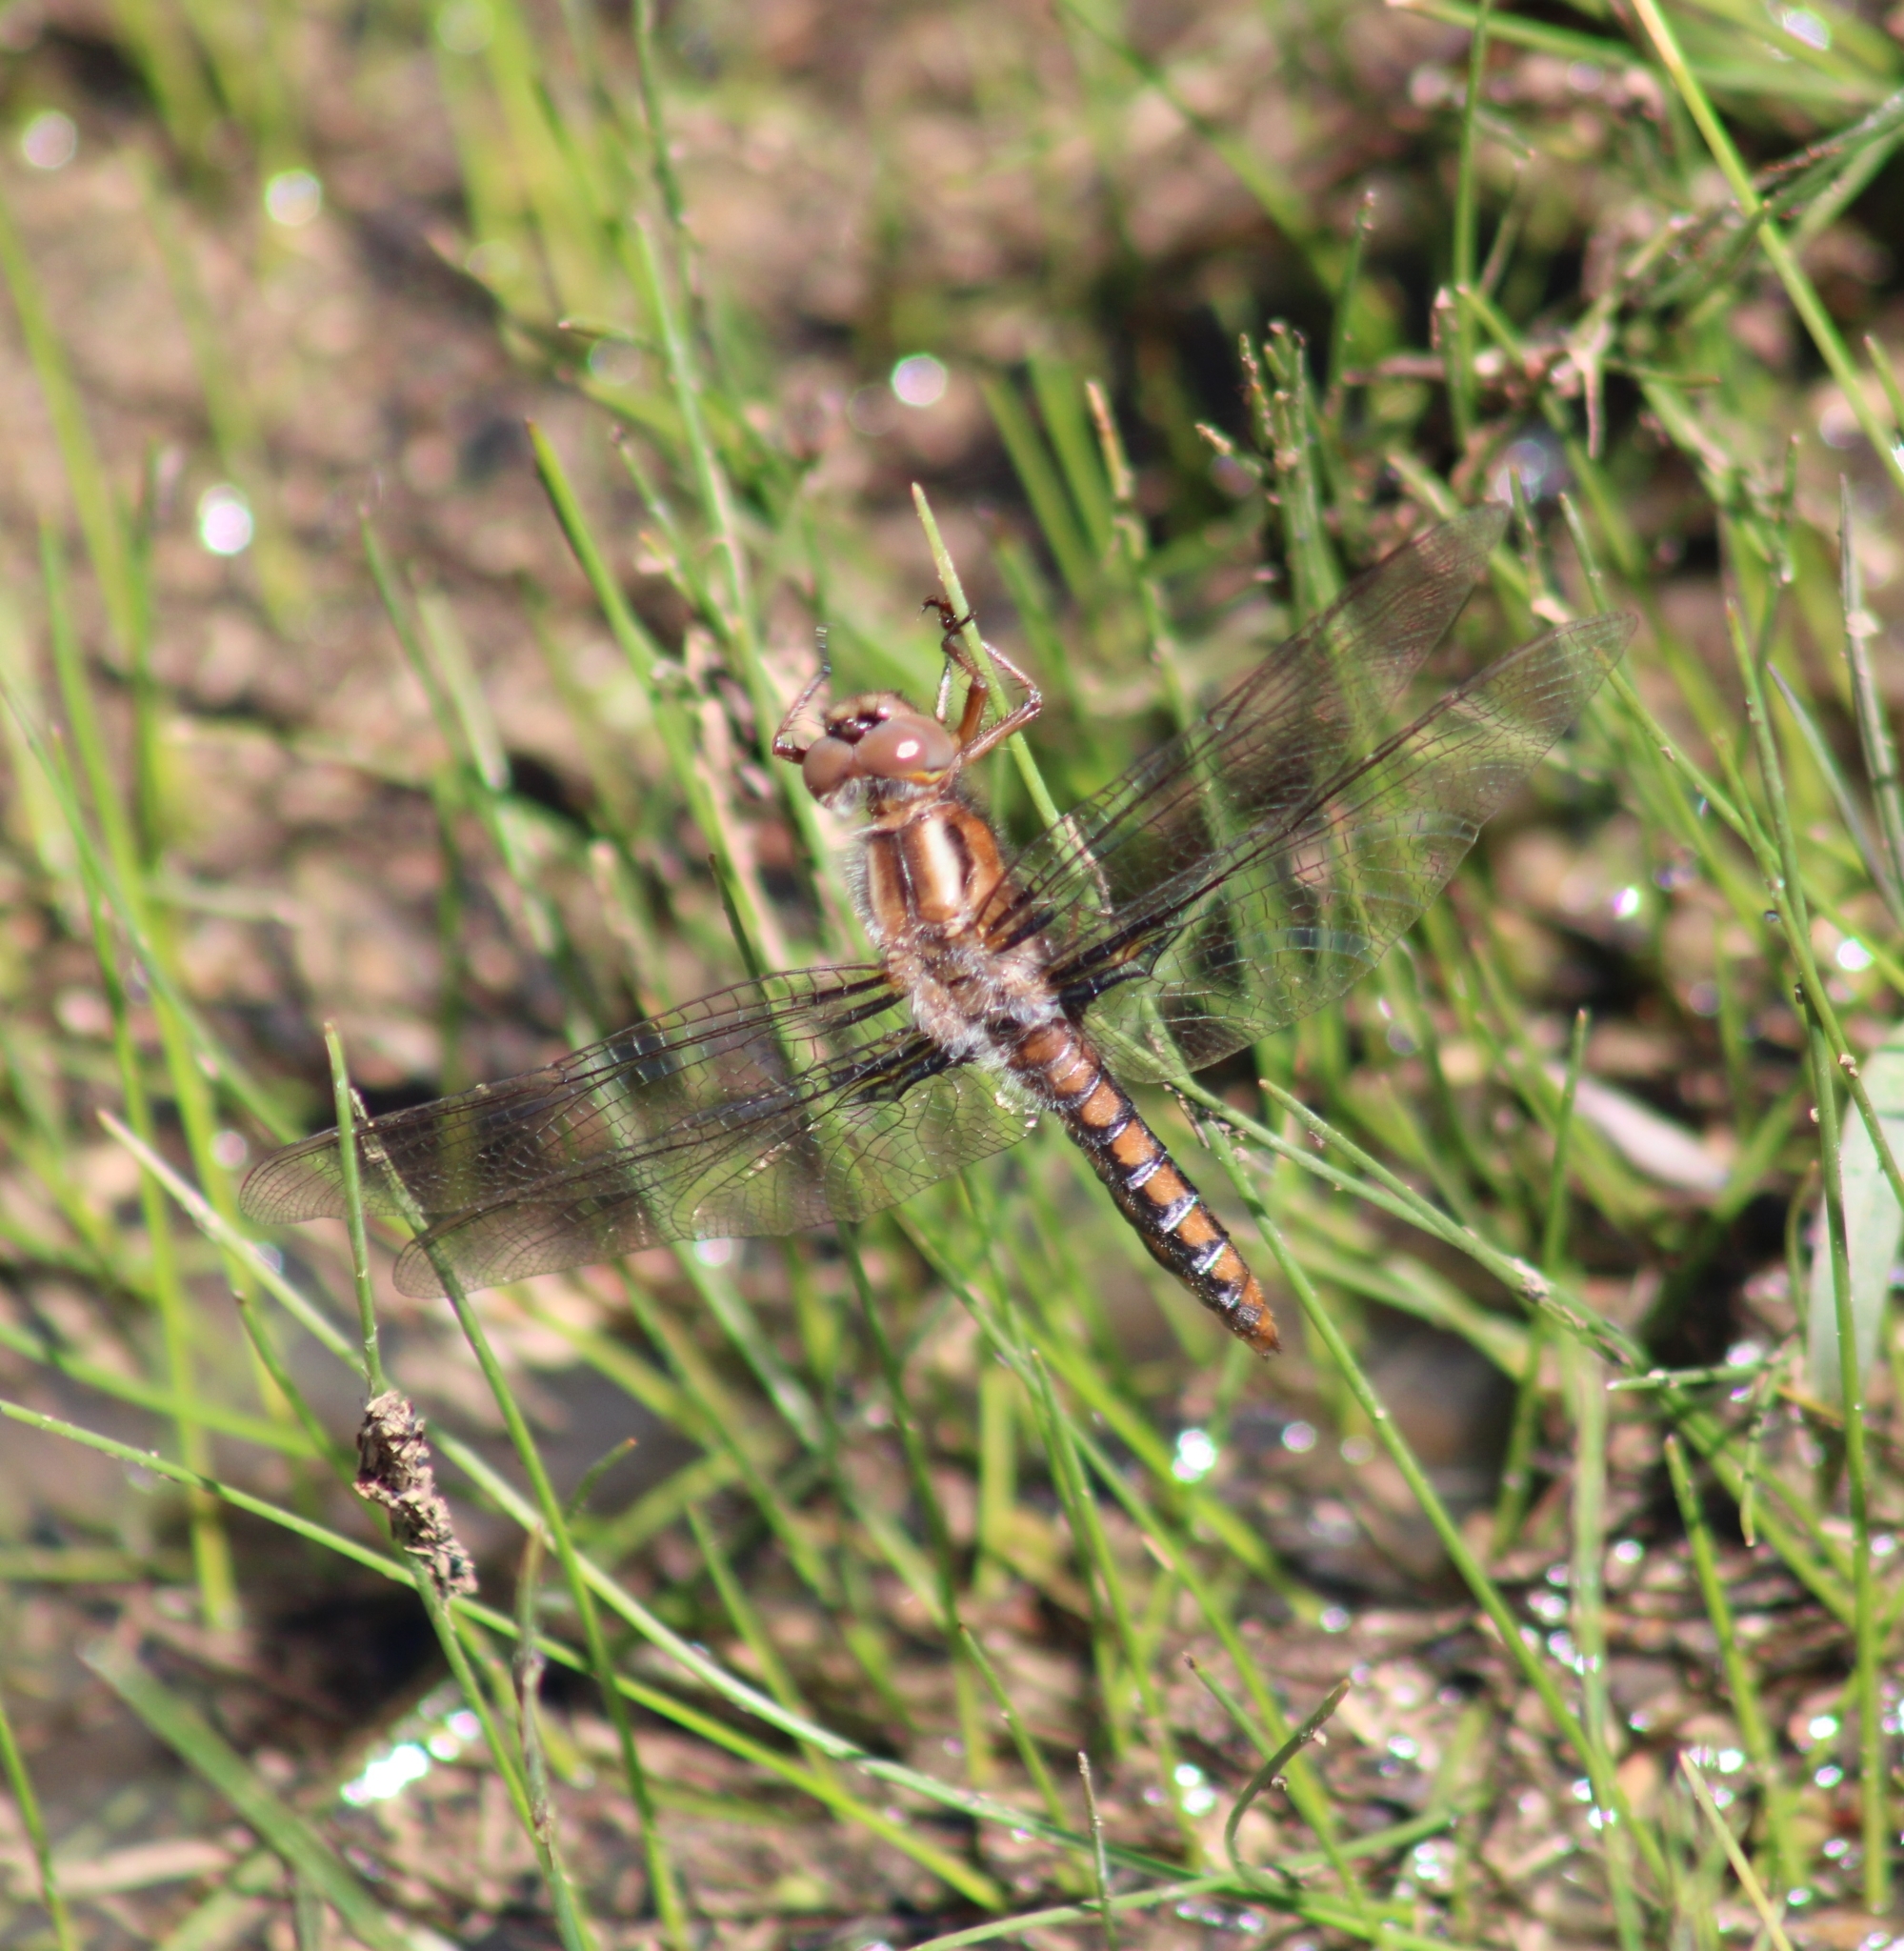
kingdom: Animalia
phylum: Arthropoda
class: Insecta
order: Odonata
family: Libellulidae
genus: Ladona
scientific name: Ladona deplanata
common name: Blue corporal
